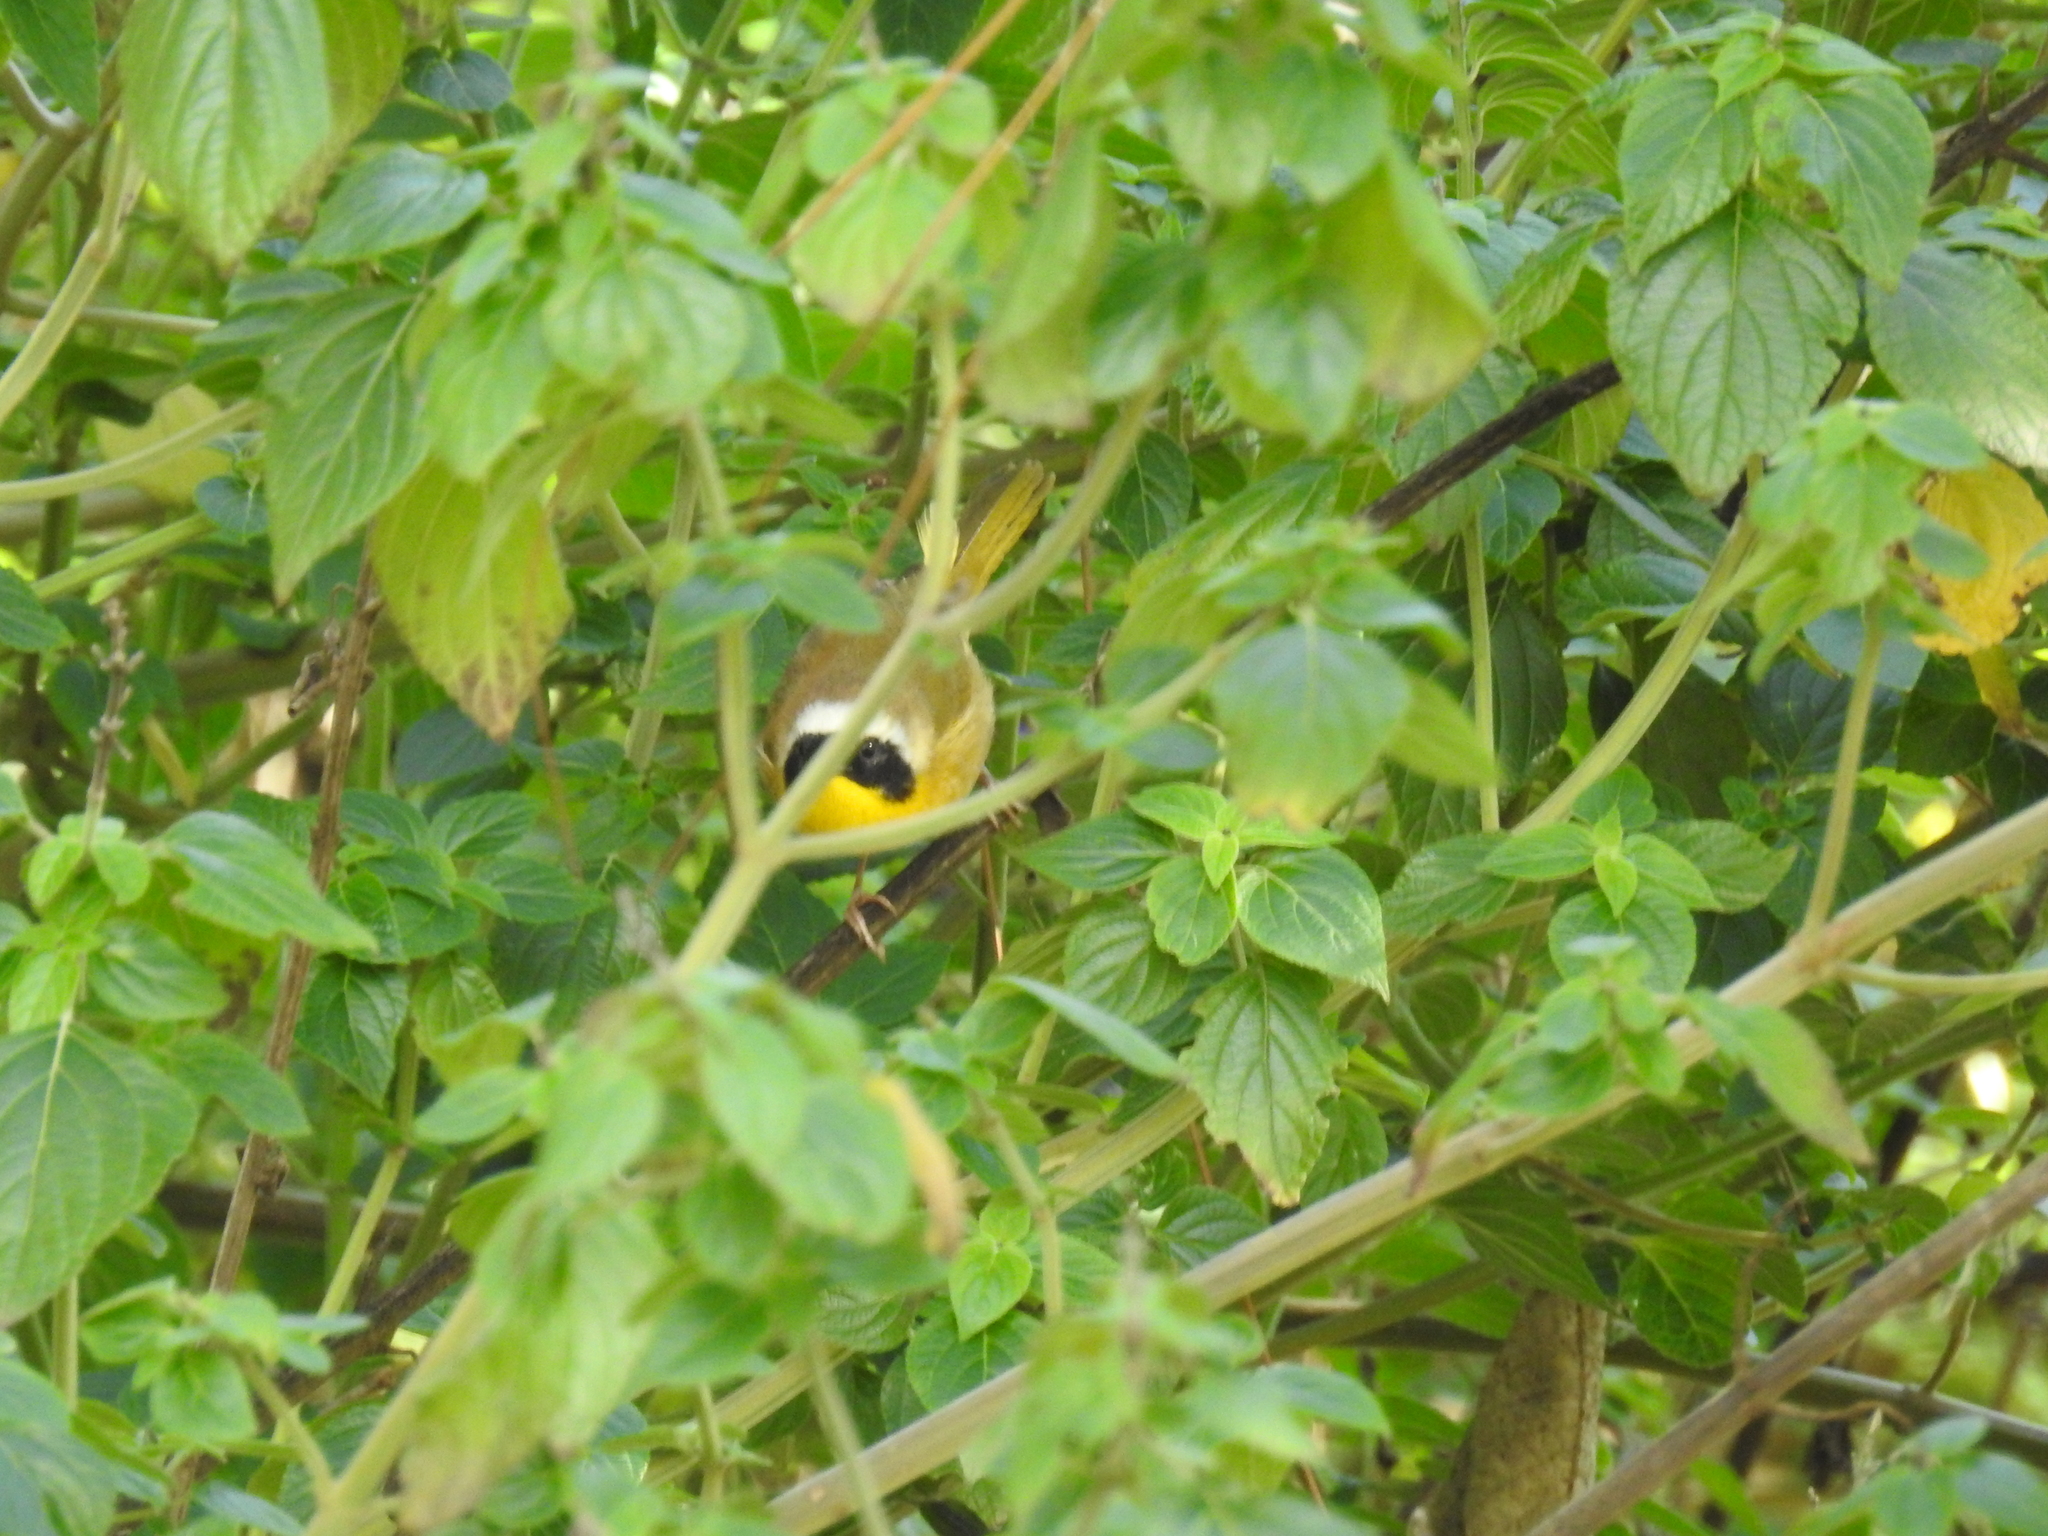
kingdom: Animalia
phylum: Chordata
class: Aves
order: Passeriformes
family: Parulidae
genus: Geothlypis
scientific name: Geothlypis trichas
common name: Common yellowthroat
